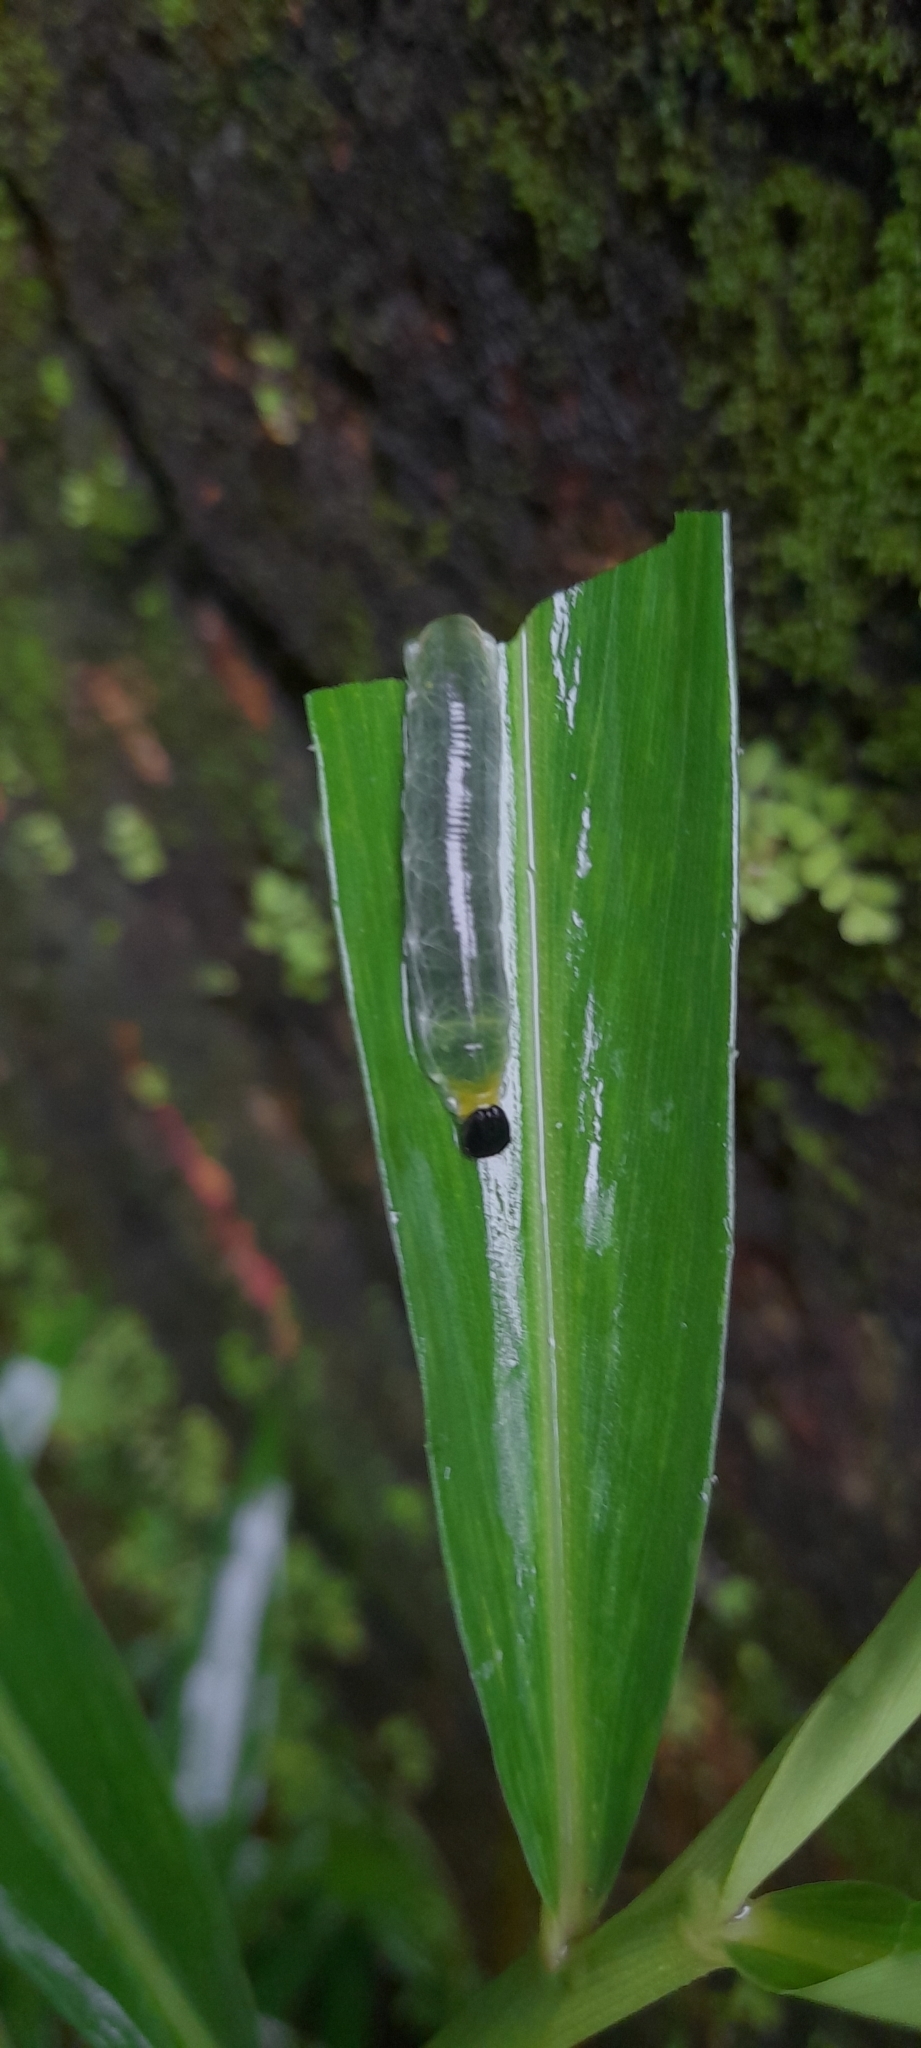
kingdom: Animalia
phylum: Arthropoda
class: Insecta
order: Lepidoptera
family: Hesperiidae
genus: Udaspes
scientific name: Udaspes folus
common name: Grass demon
